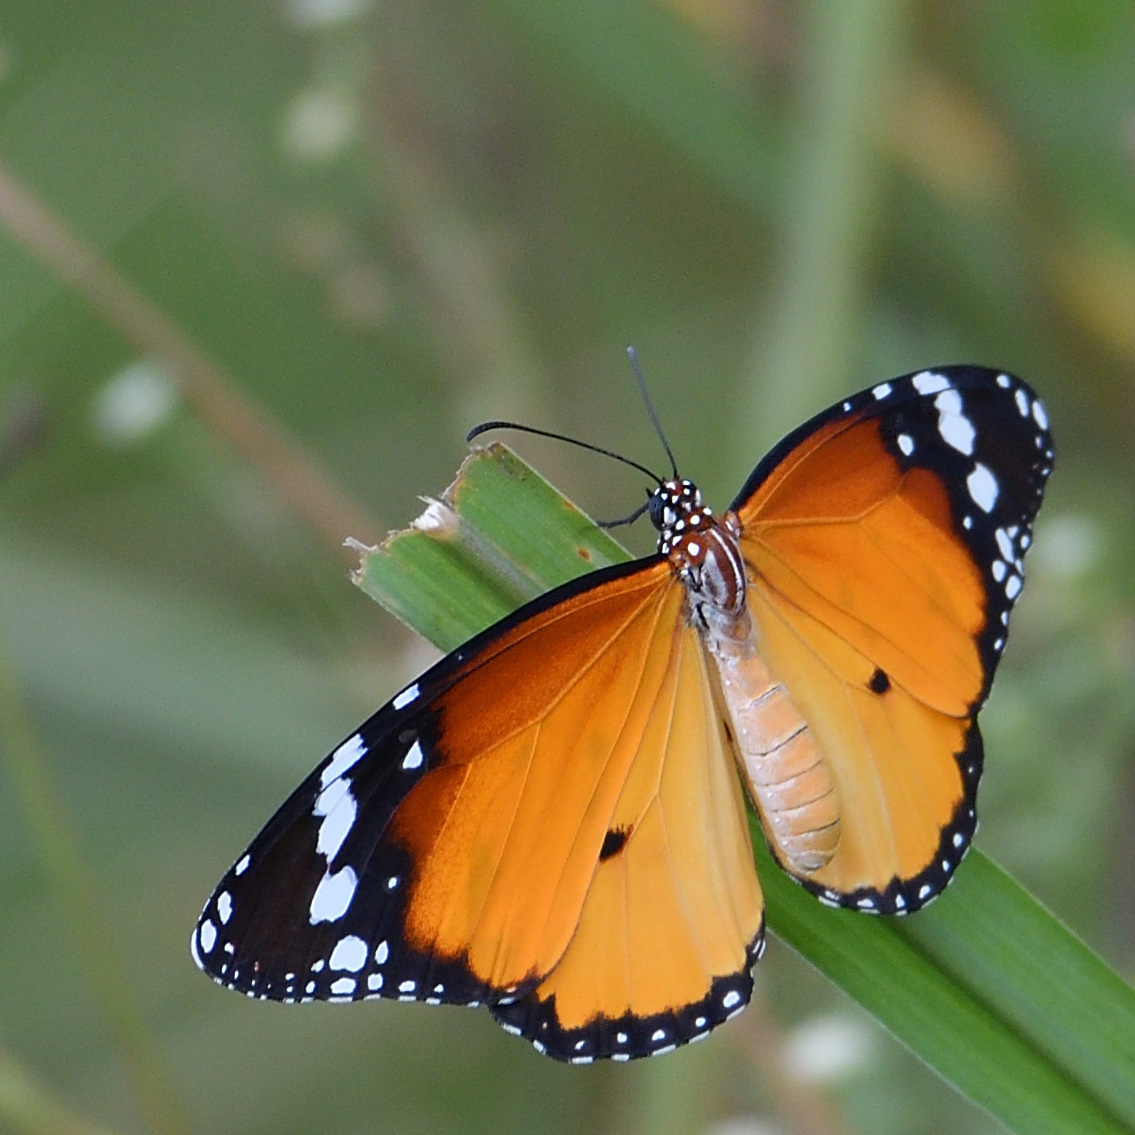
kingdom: Animalia
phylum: Arthropoda
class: Insecta
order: Lepidoptera
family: Nymphalidae
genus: Danaus
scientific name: Danaus chrysippus
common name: Plain tiger
